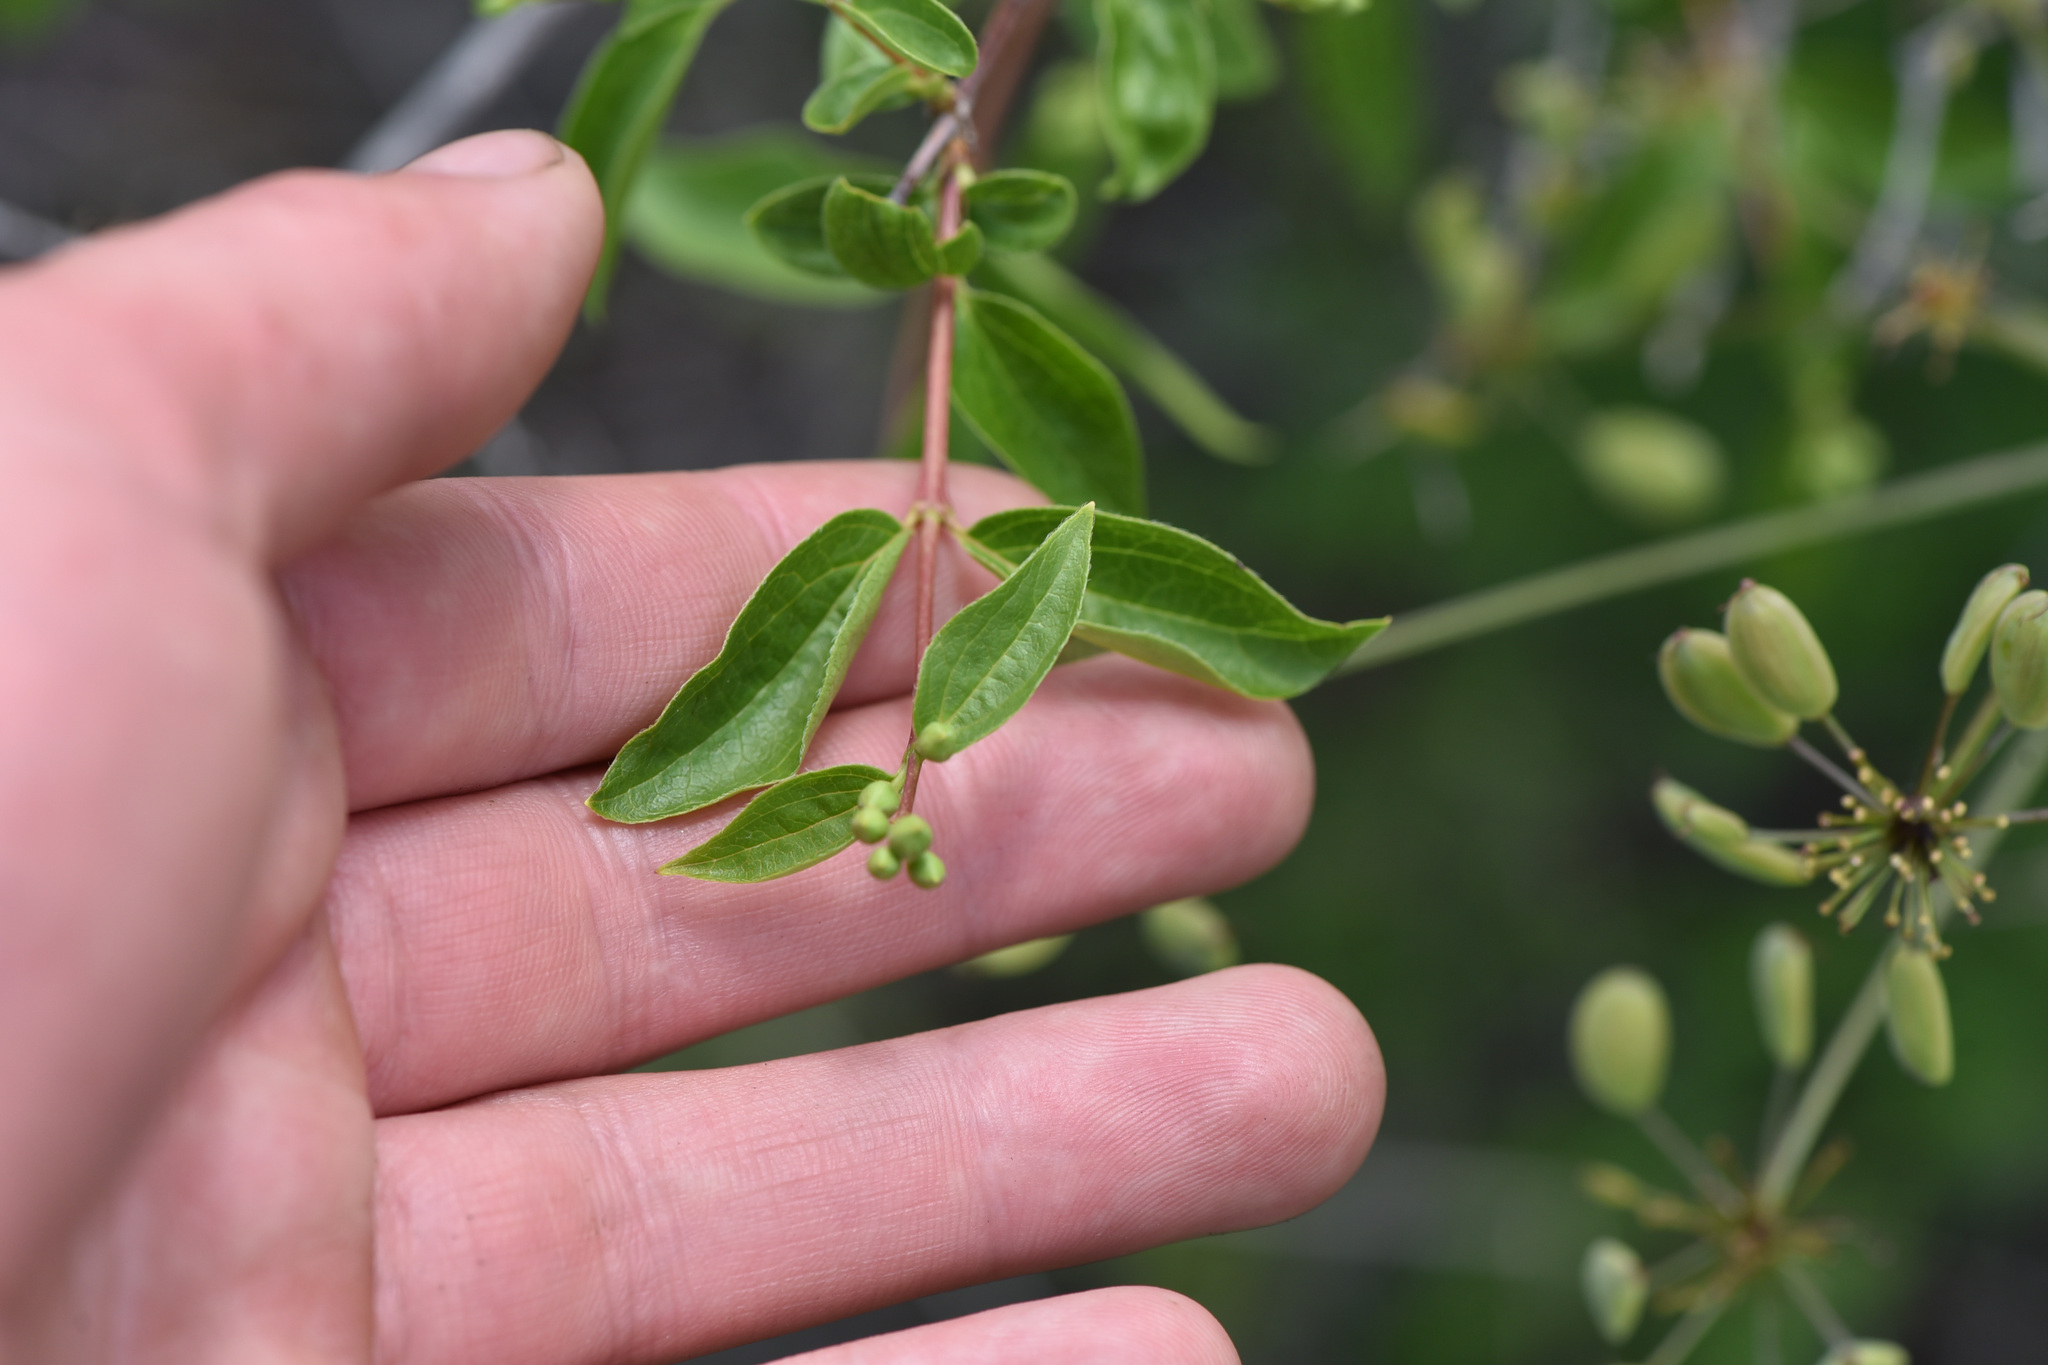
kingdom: Plantae
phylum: Tracheophyta
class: Magnoliopsida
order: Cornales
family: Hydrangeaceae
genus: Philadelphus
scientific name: Philadelphus lewisii
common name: Lewis's mock orange
